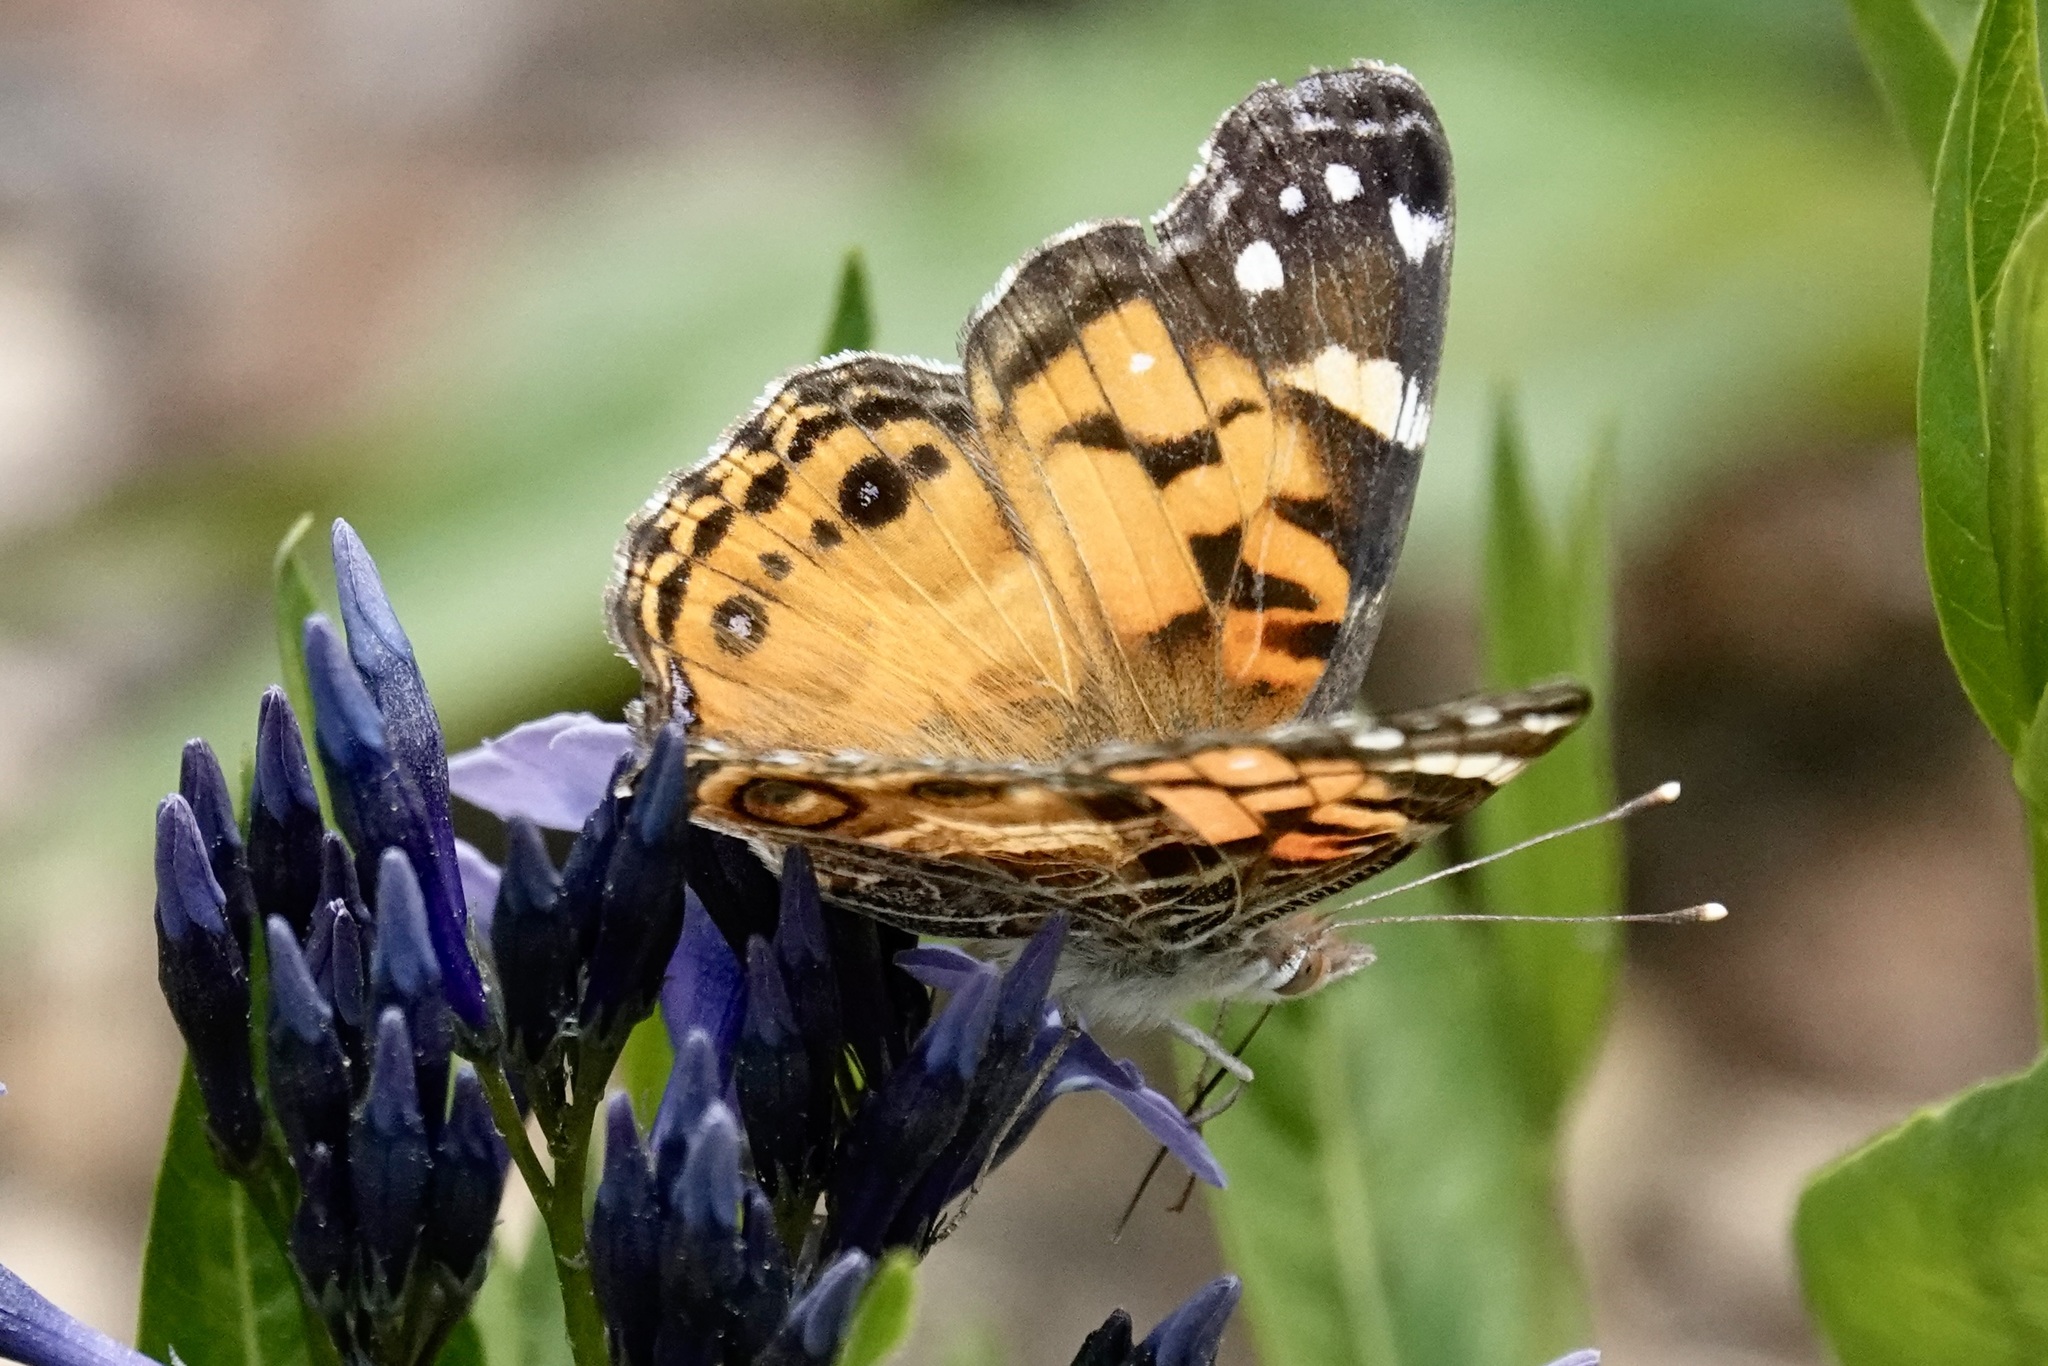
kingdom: Animalia
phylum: Arthropoda
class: Insecta
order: Lepidoptera
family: Nymphalidae
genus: Vanessa
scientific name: Vanessa virginiensis
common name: American lady
